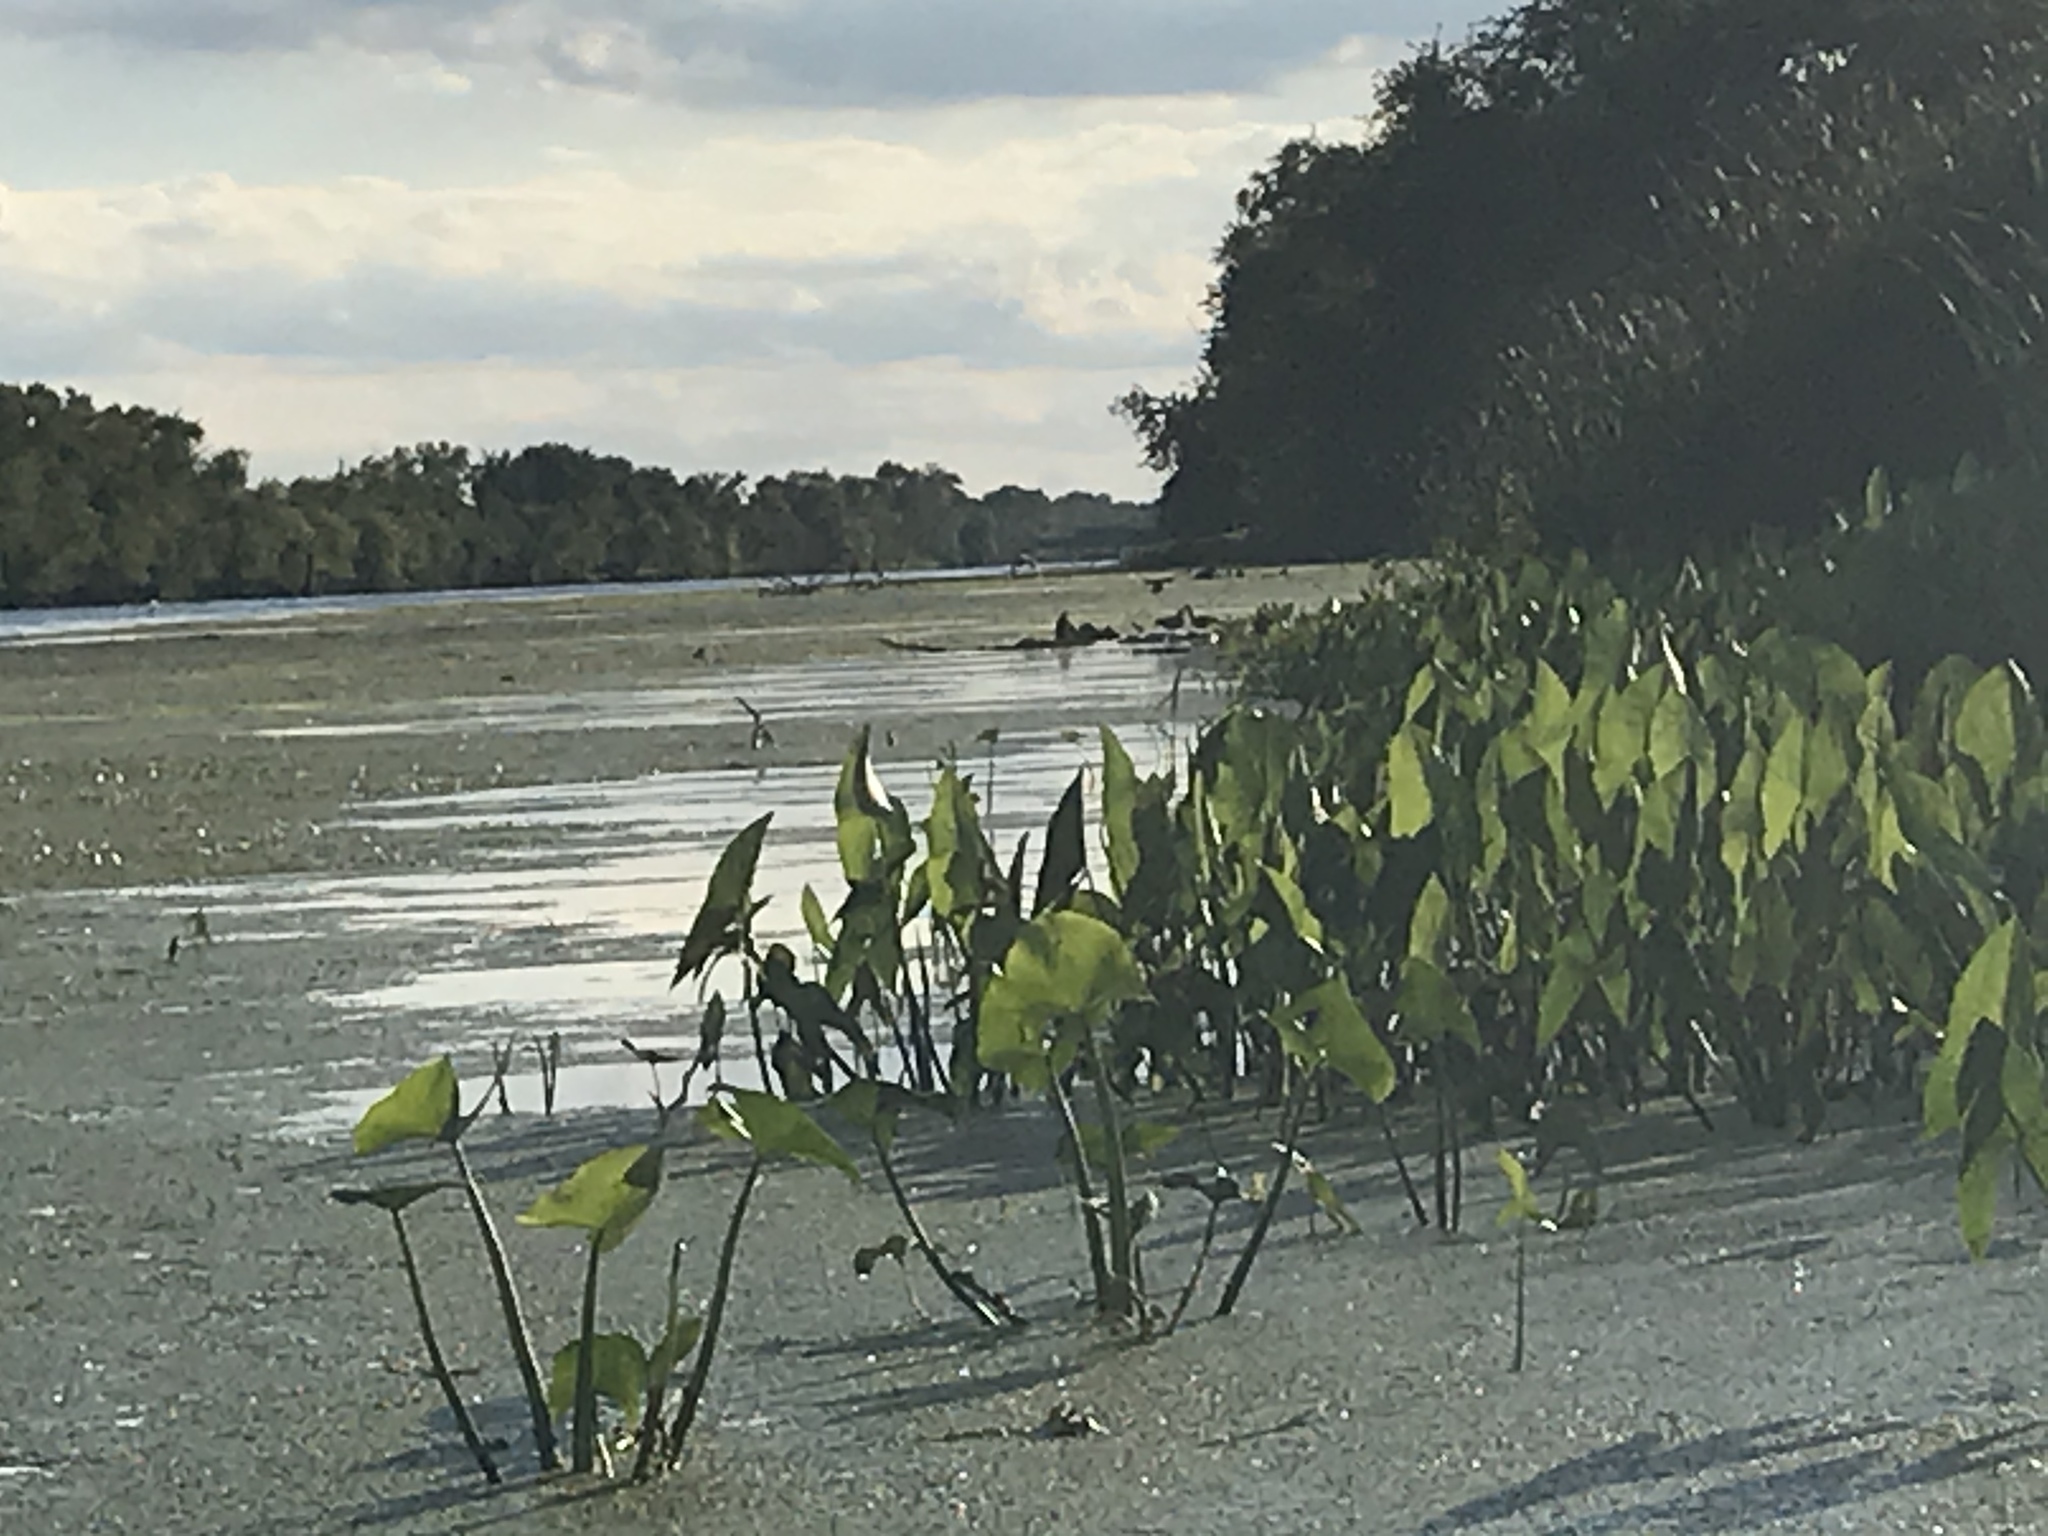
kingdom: Plantae
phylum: Tracheophyta
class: Liliopsida
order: Alismatales
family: Alismataceae
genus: Sagittaria
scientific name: Sagittaria latifolia
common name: Duck-potato
